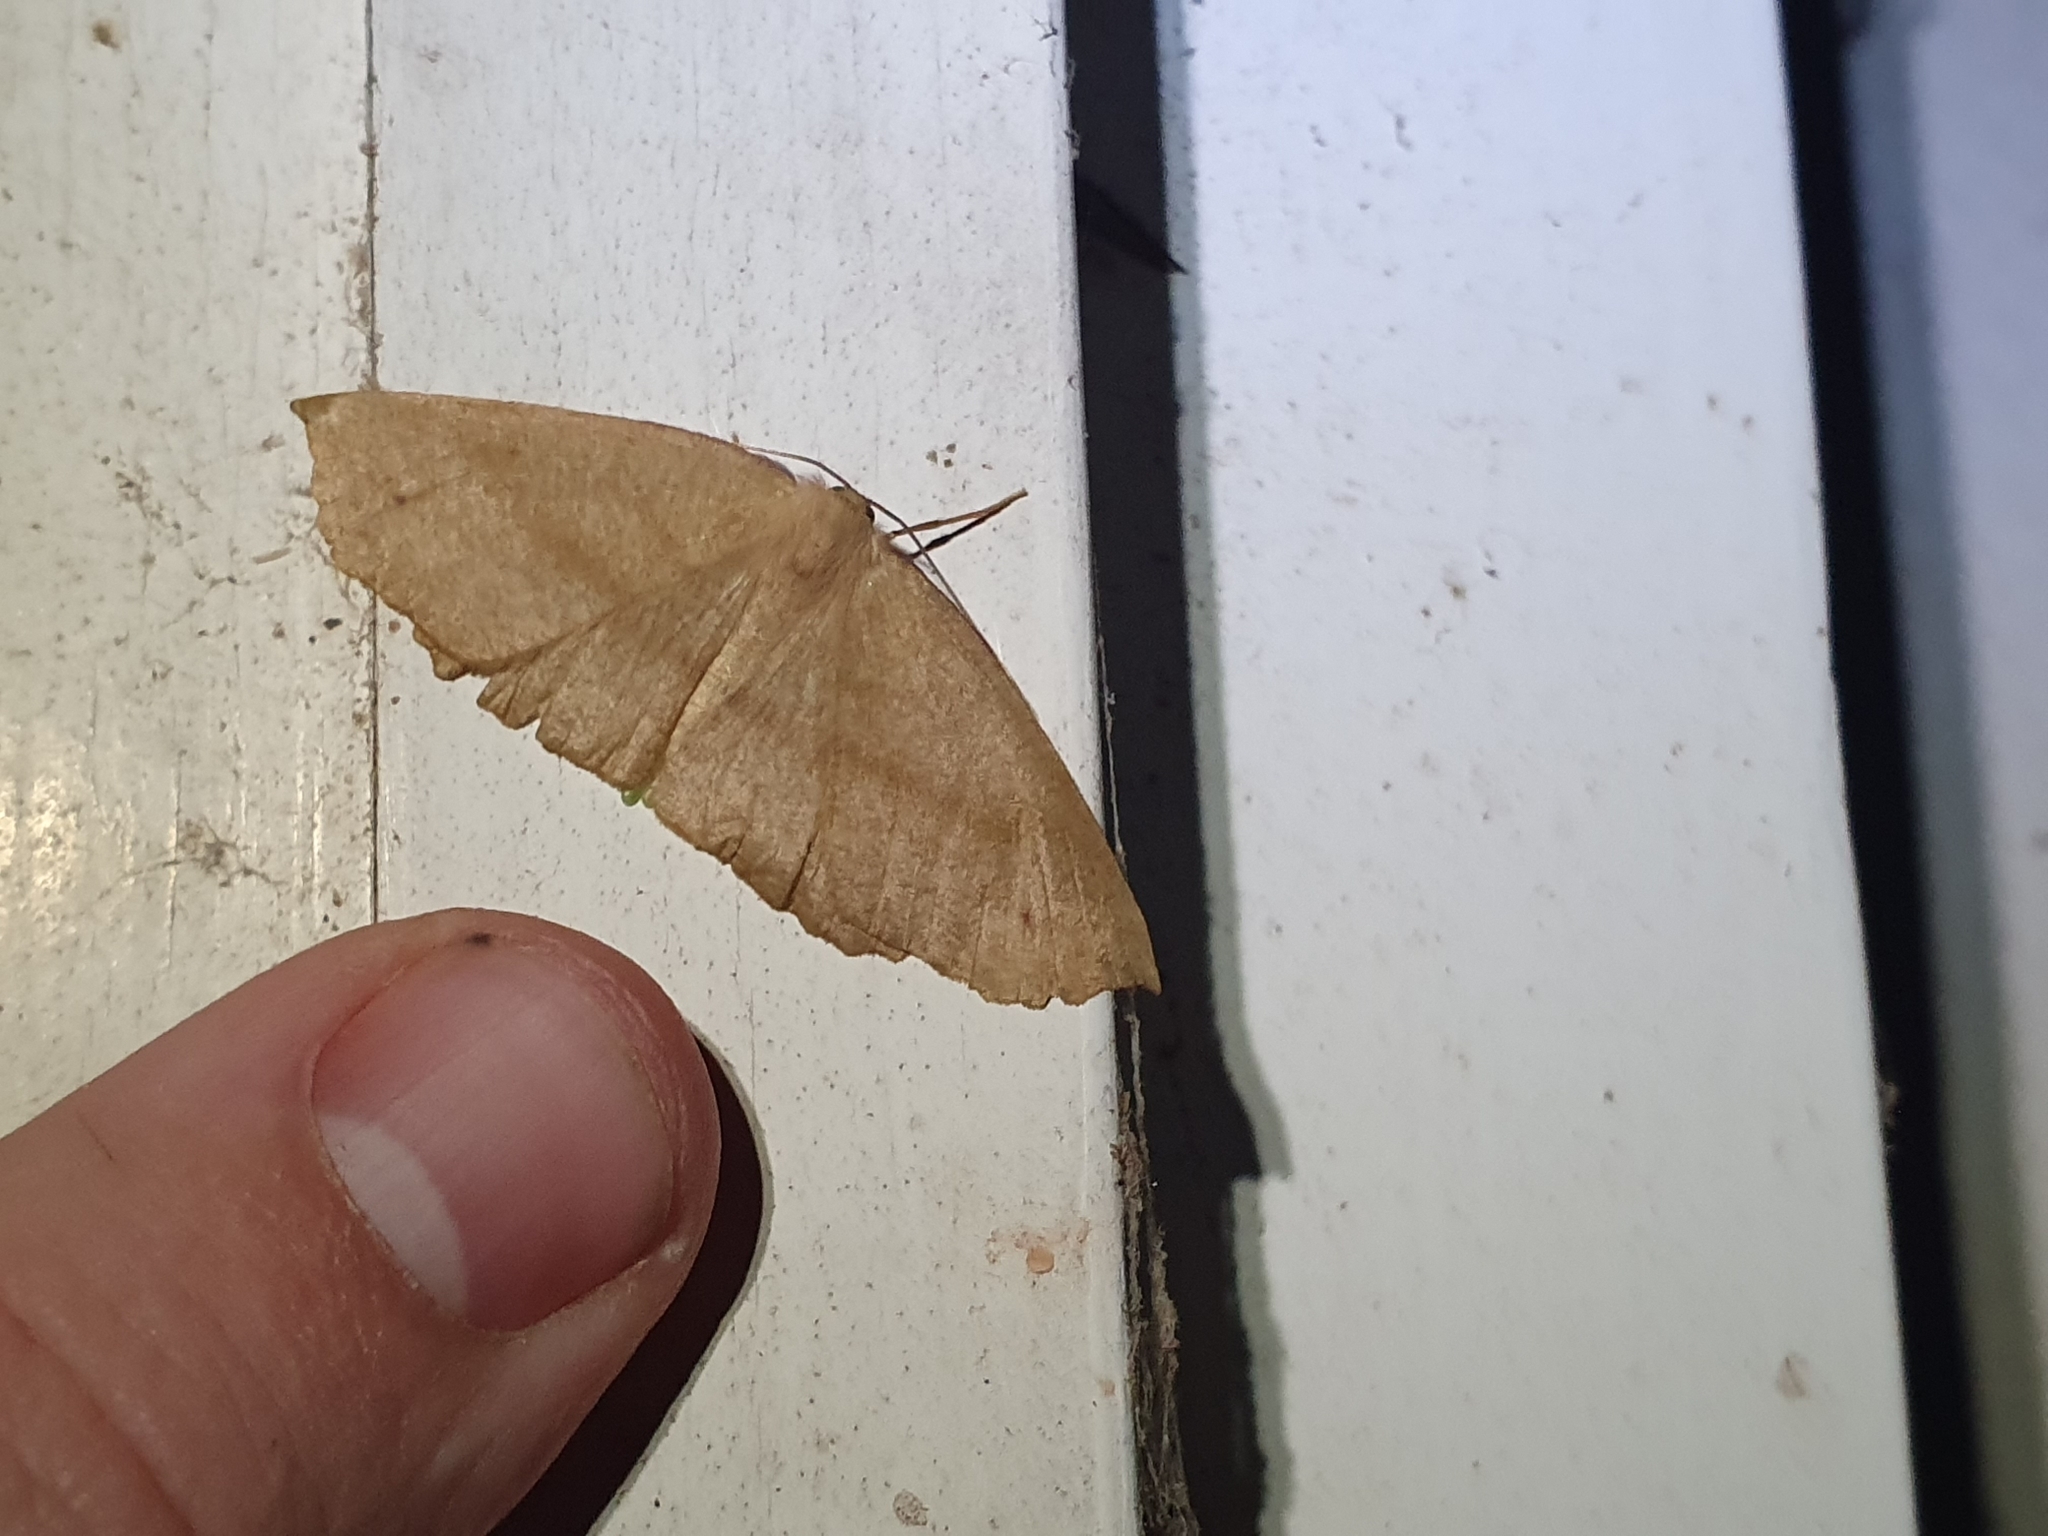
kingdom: Animalia
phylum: Arthropoda
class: Insecta
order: Lepidoptera
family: Geometridae
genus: Xyridacma
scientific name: Xyridacma ustaria
